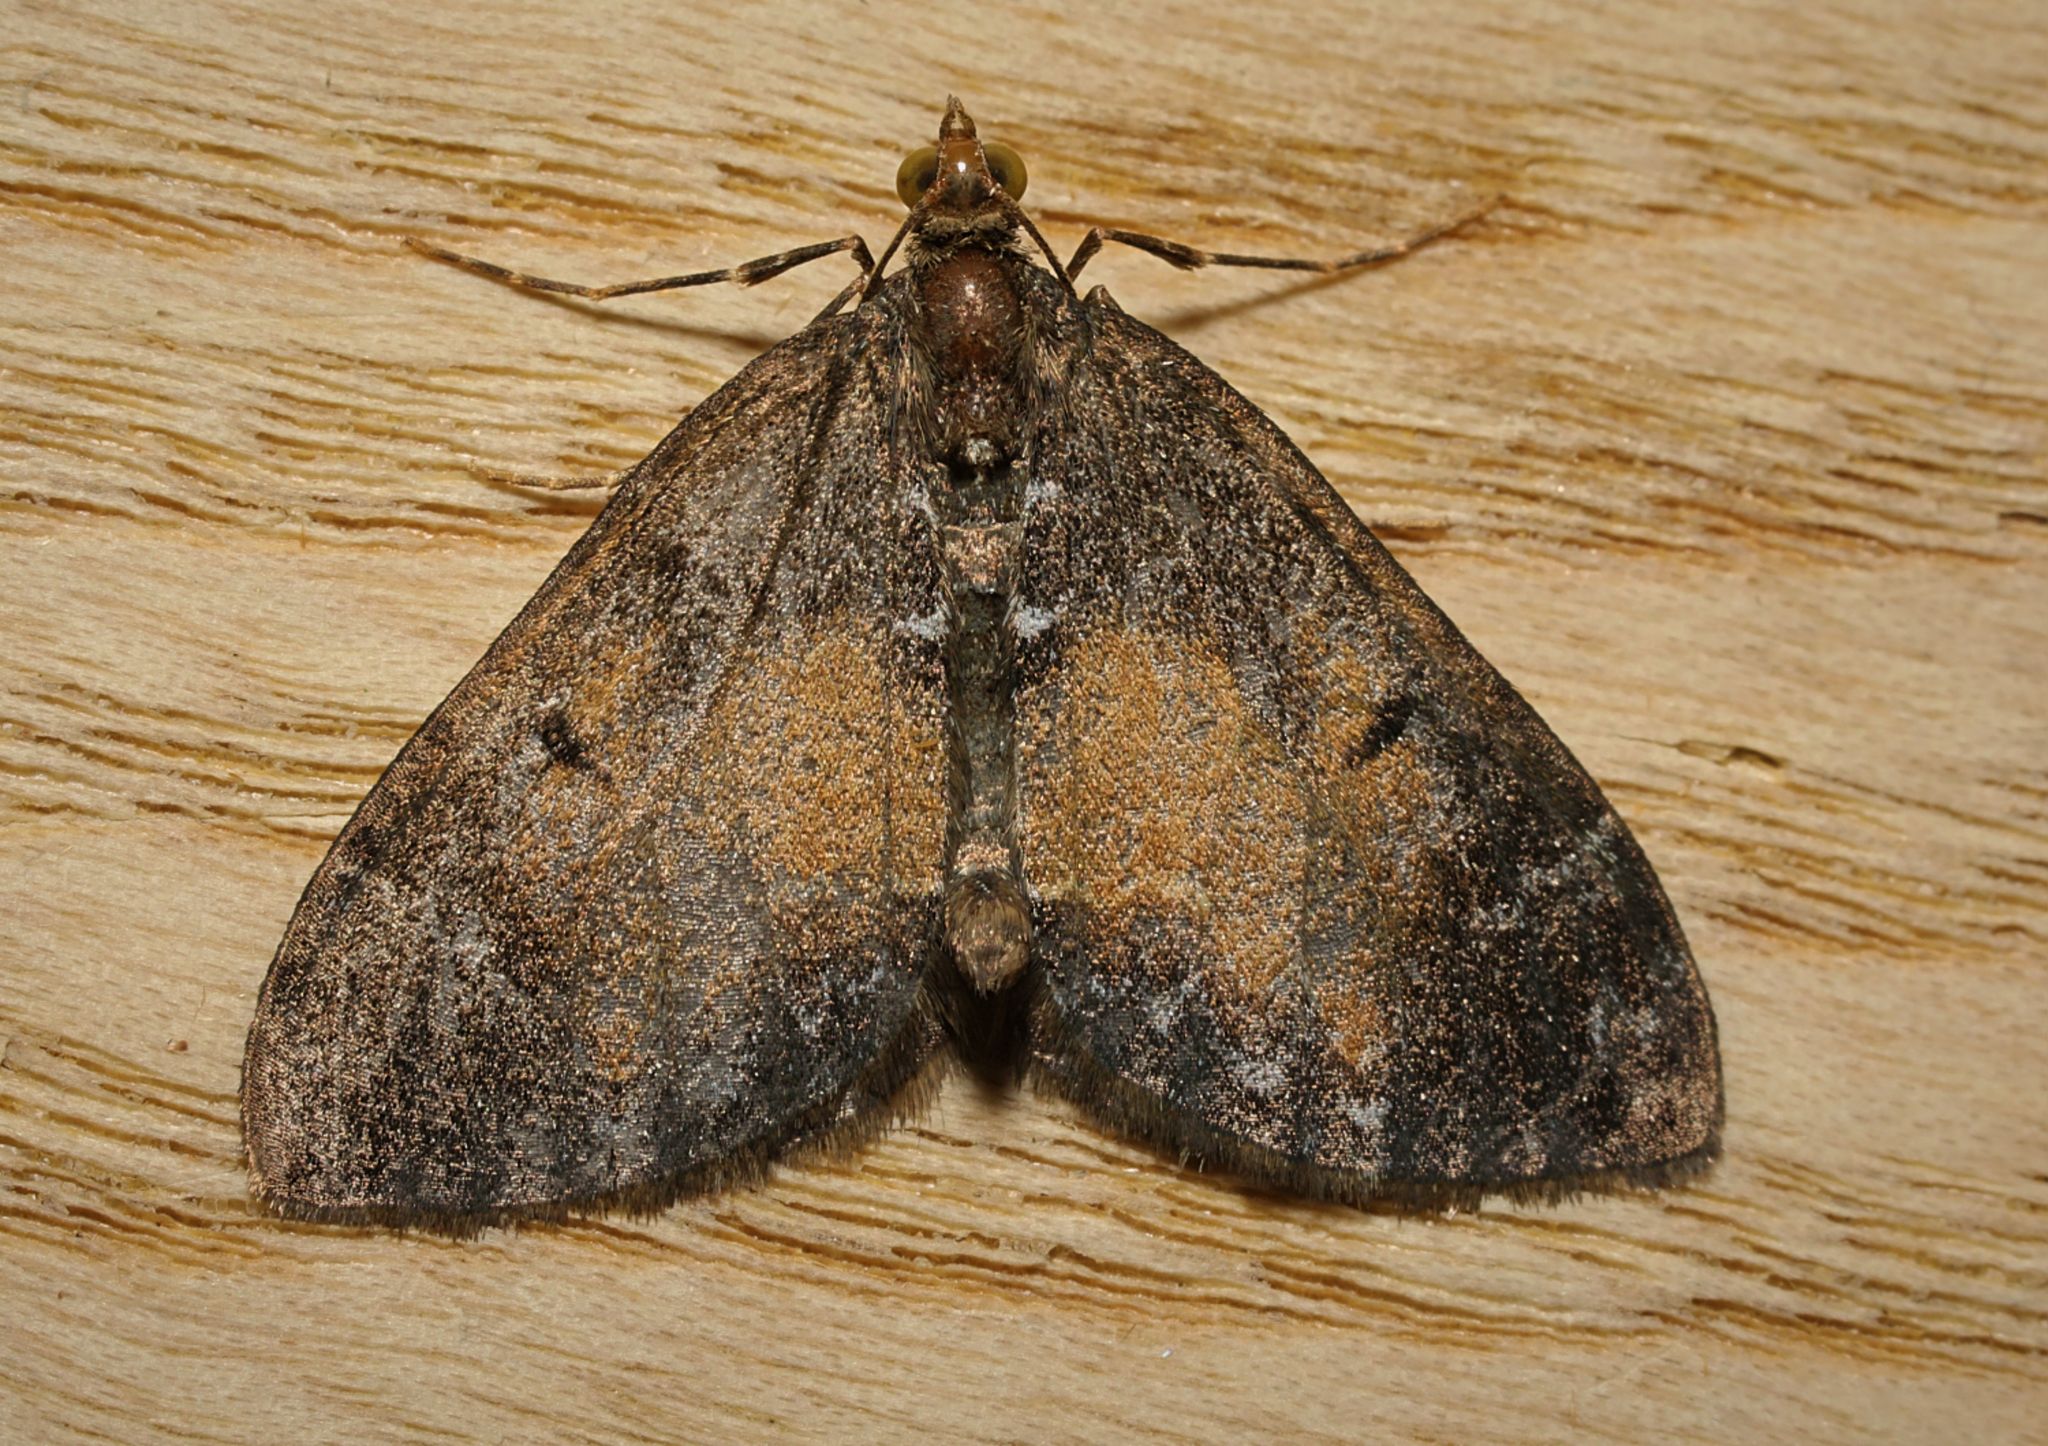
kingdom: Animalia
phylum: Arthropoda
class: Insecta
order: Lepidoptera
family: Geometridae
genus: Dysstroma
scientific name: Dysstroma truncata
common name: Common marbled carpet
